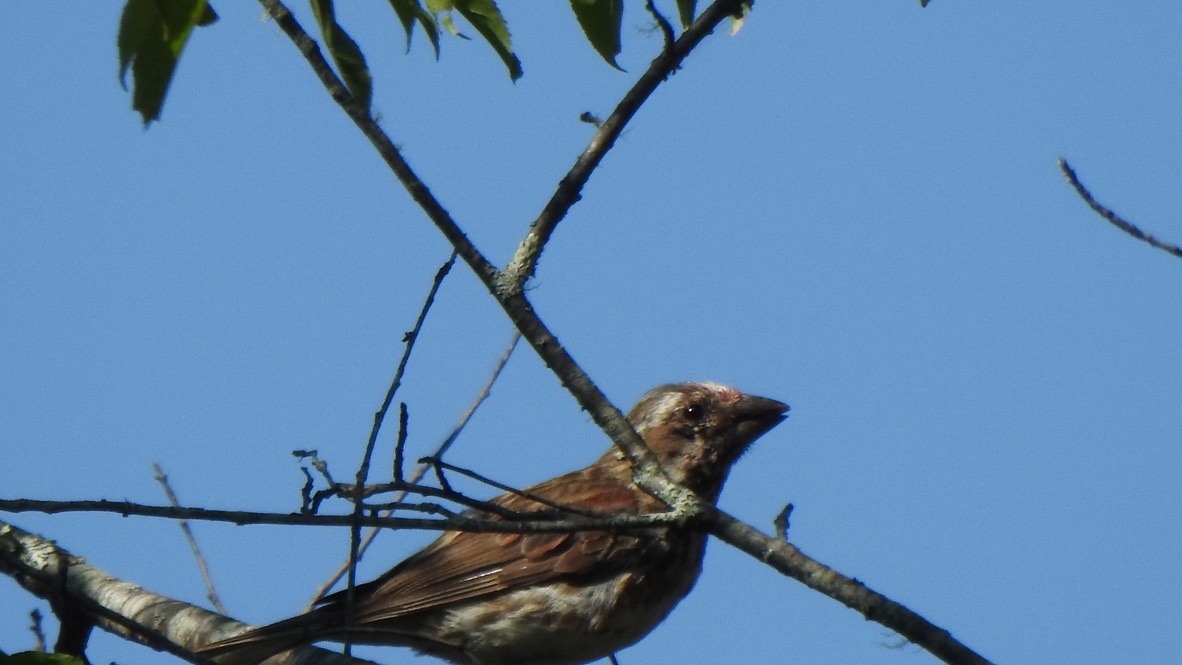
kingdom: Animalia
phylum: Chordata
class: Aves
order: Passeriformes
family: Fringillidae
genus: Haemorhous
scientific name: Haemorhous purpureus
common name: Purple finch
